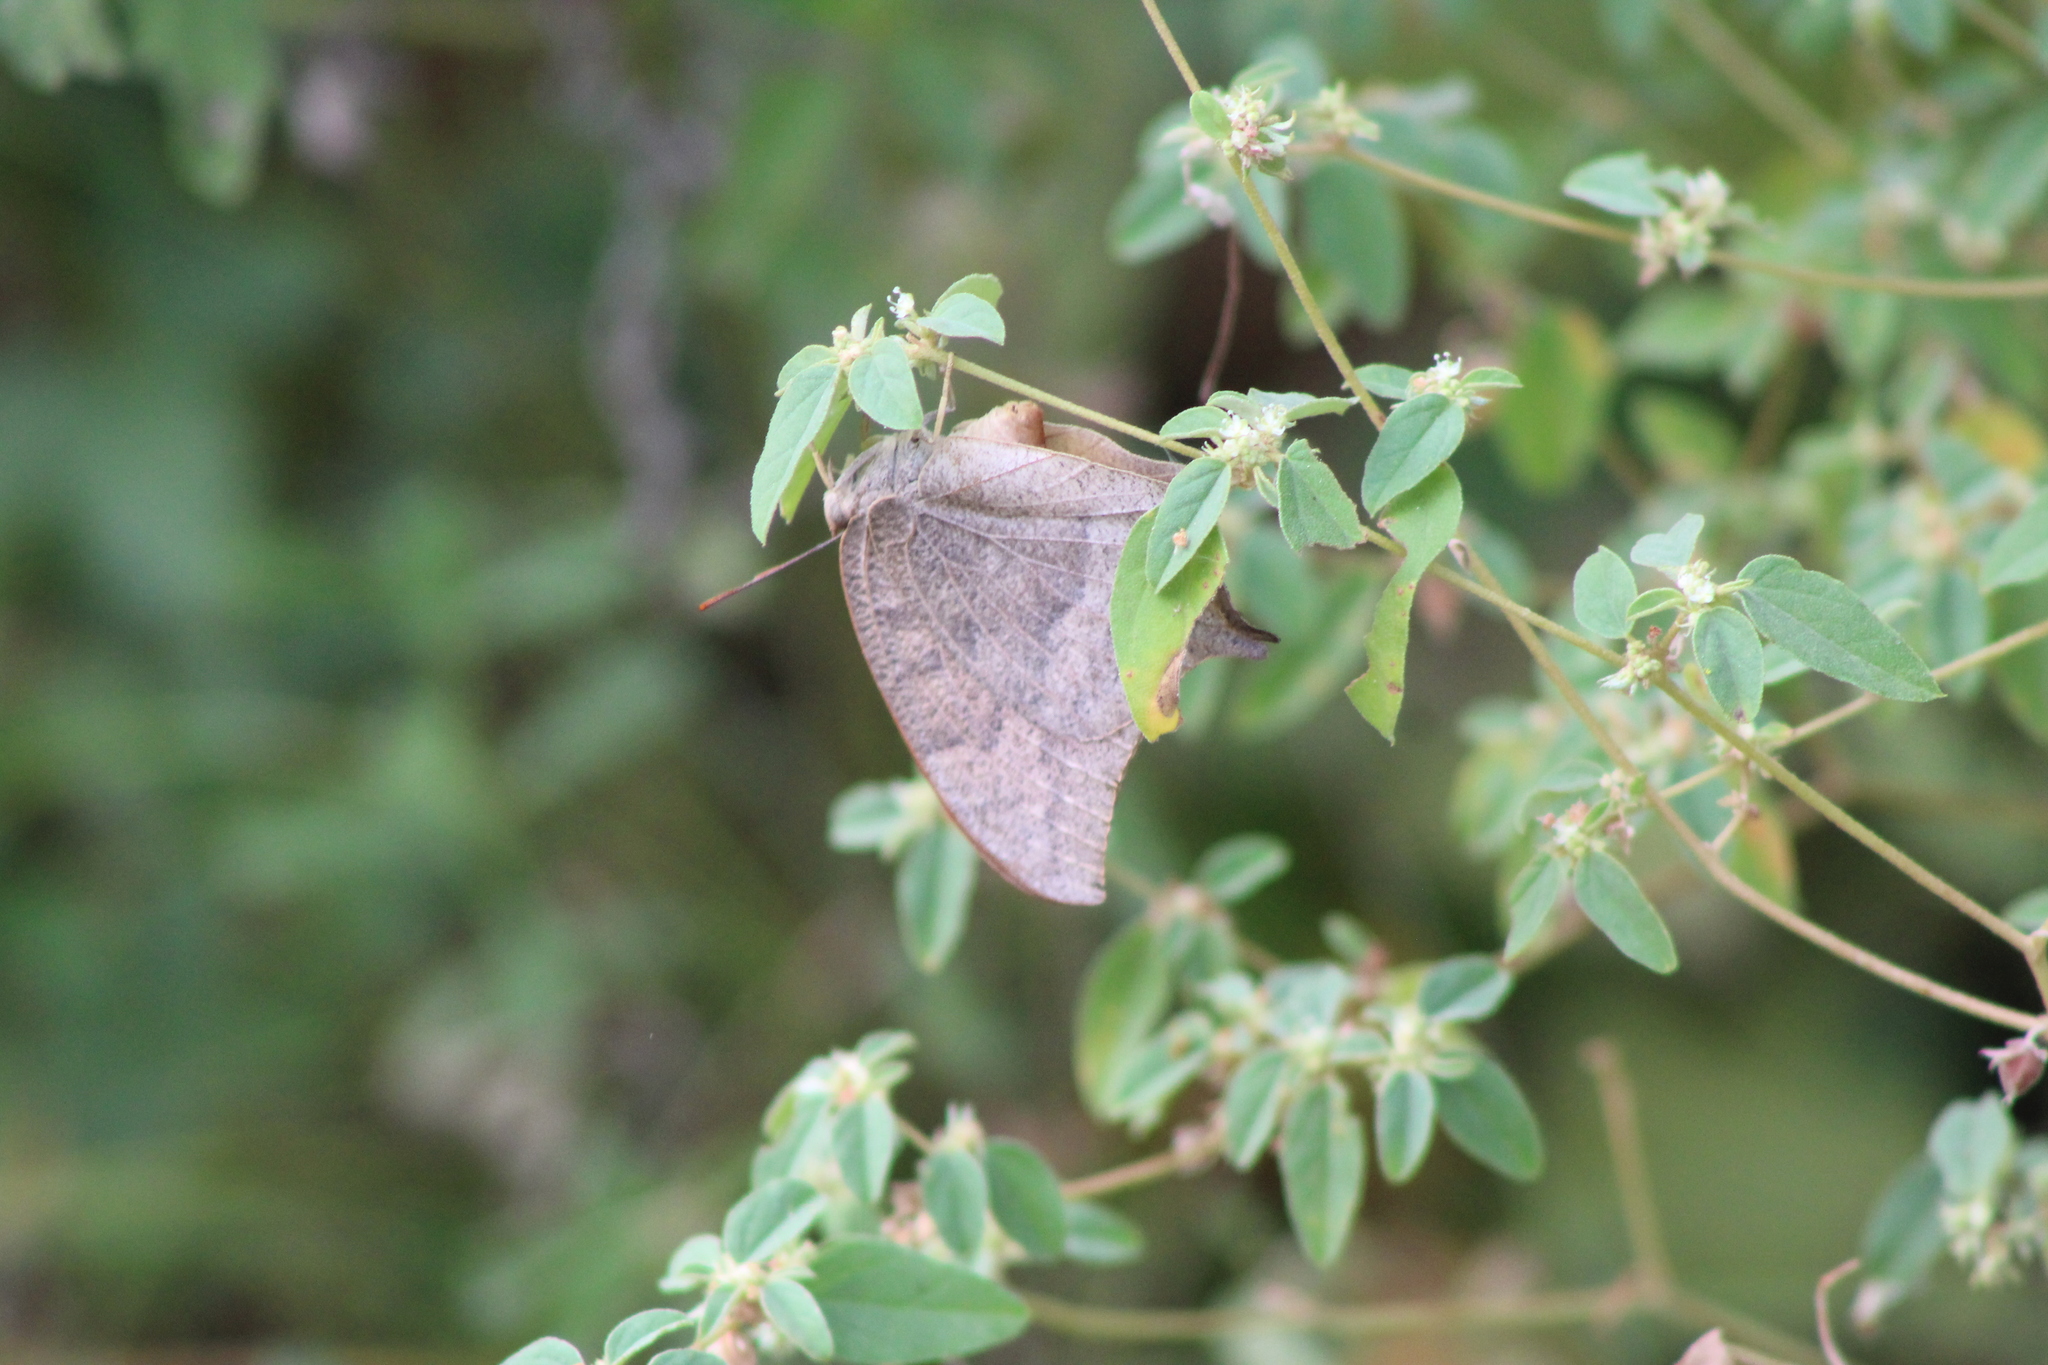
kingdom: Animalia
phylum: Arthropoda
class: Insecta
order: Lepidoptera
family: Nymphalidae
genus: Anaea
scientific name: Anaea andria
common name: Goatweed leafwing
